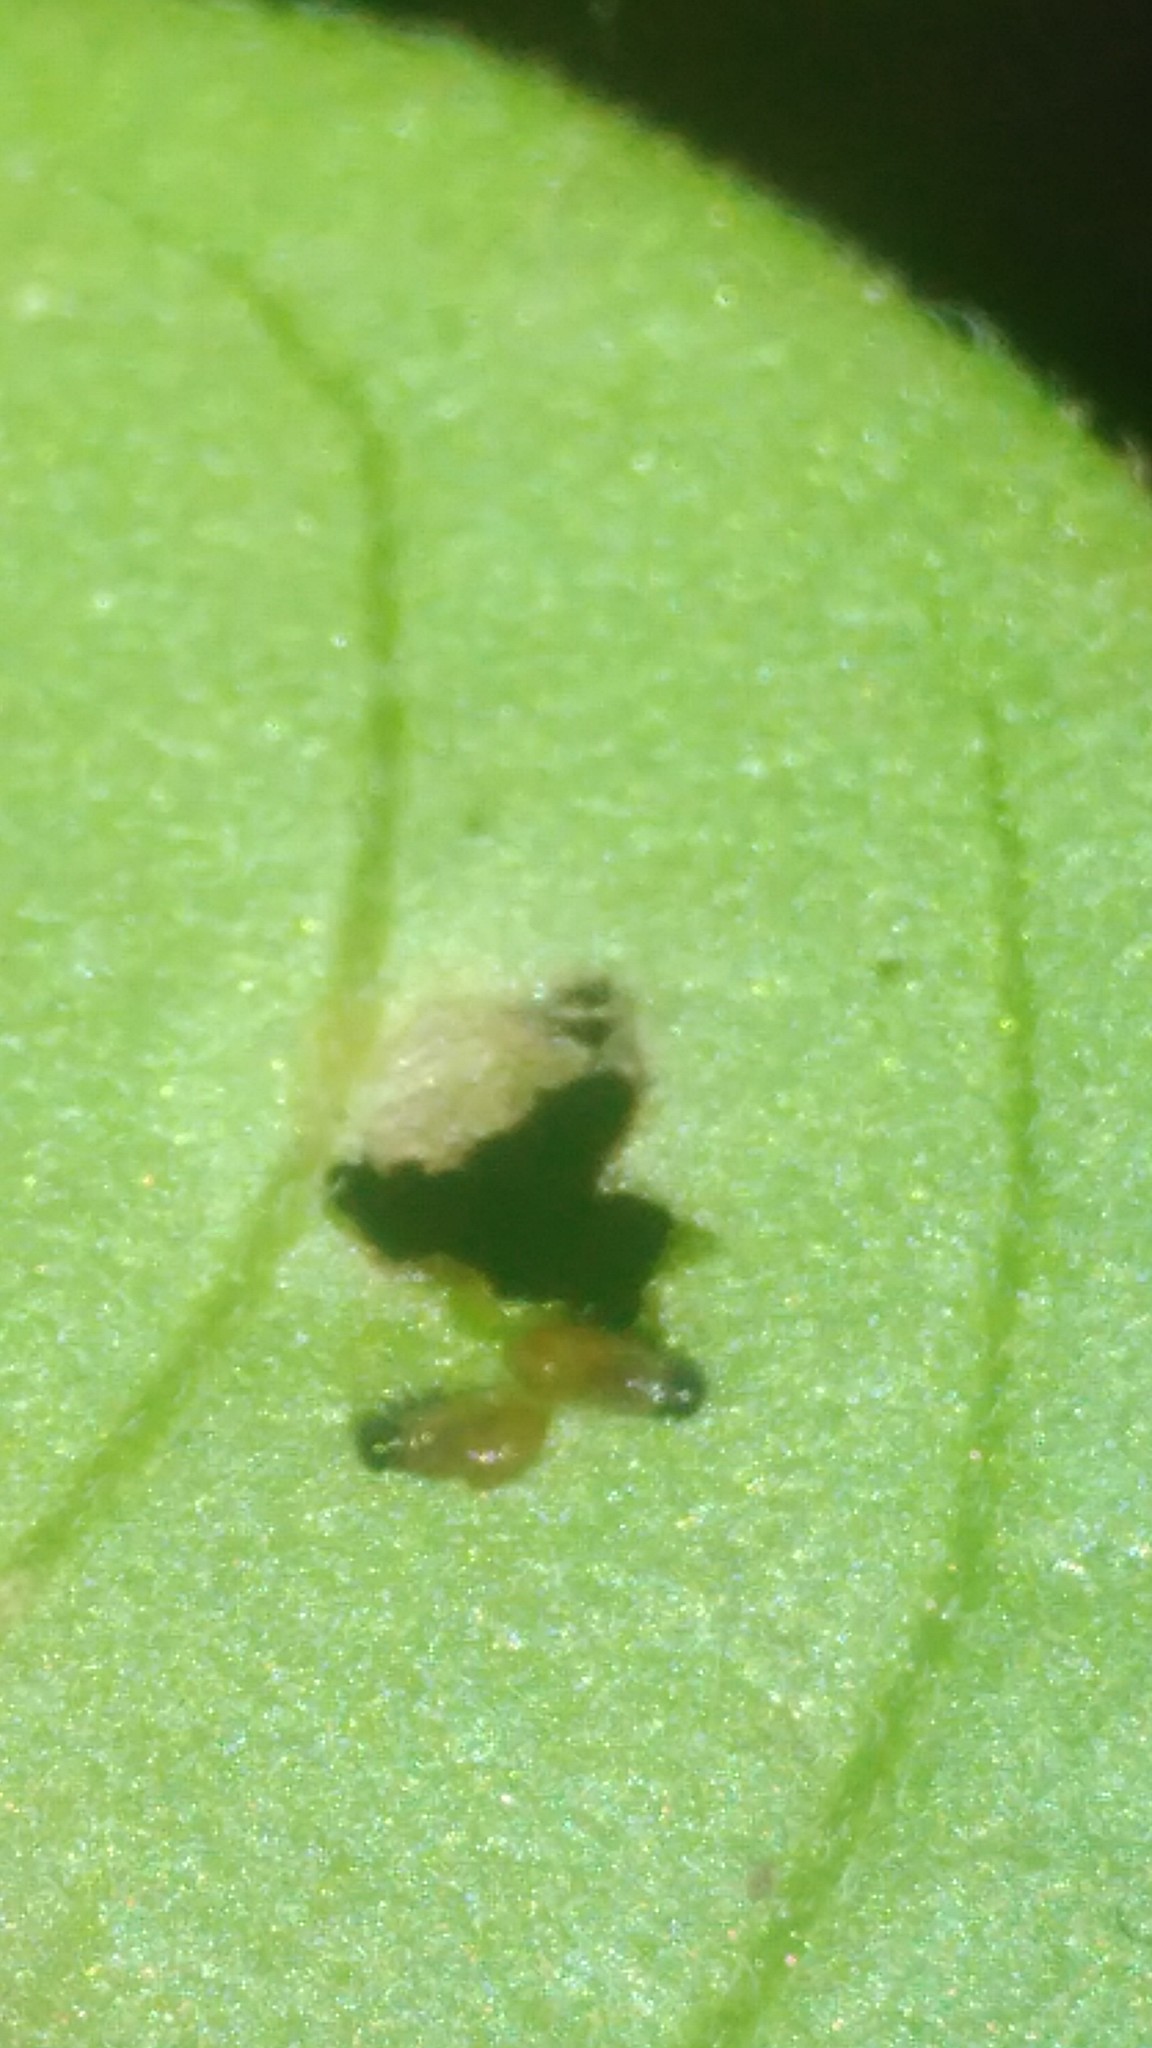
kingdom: Animalia
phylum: Arthropoda
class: Insecta
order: Coleoptera
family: Chrysomelidae
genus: Lema
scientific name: Lema bilineata
